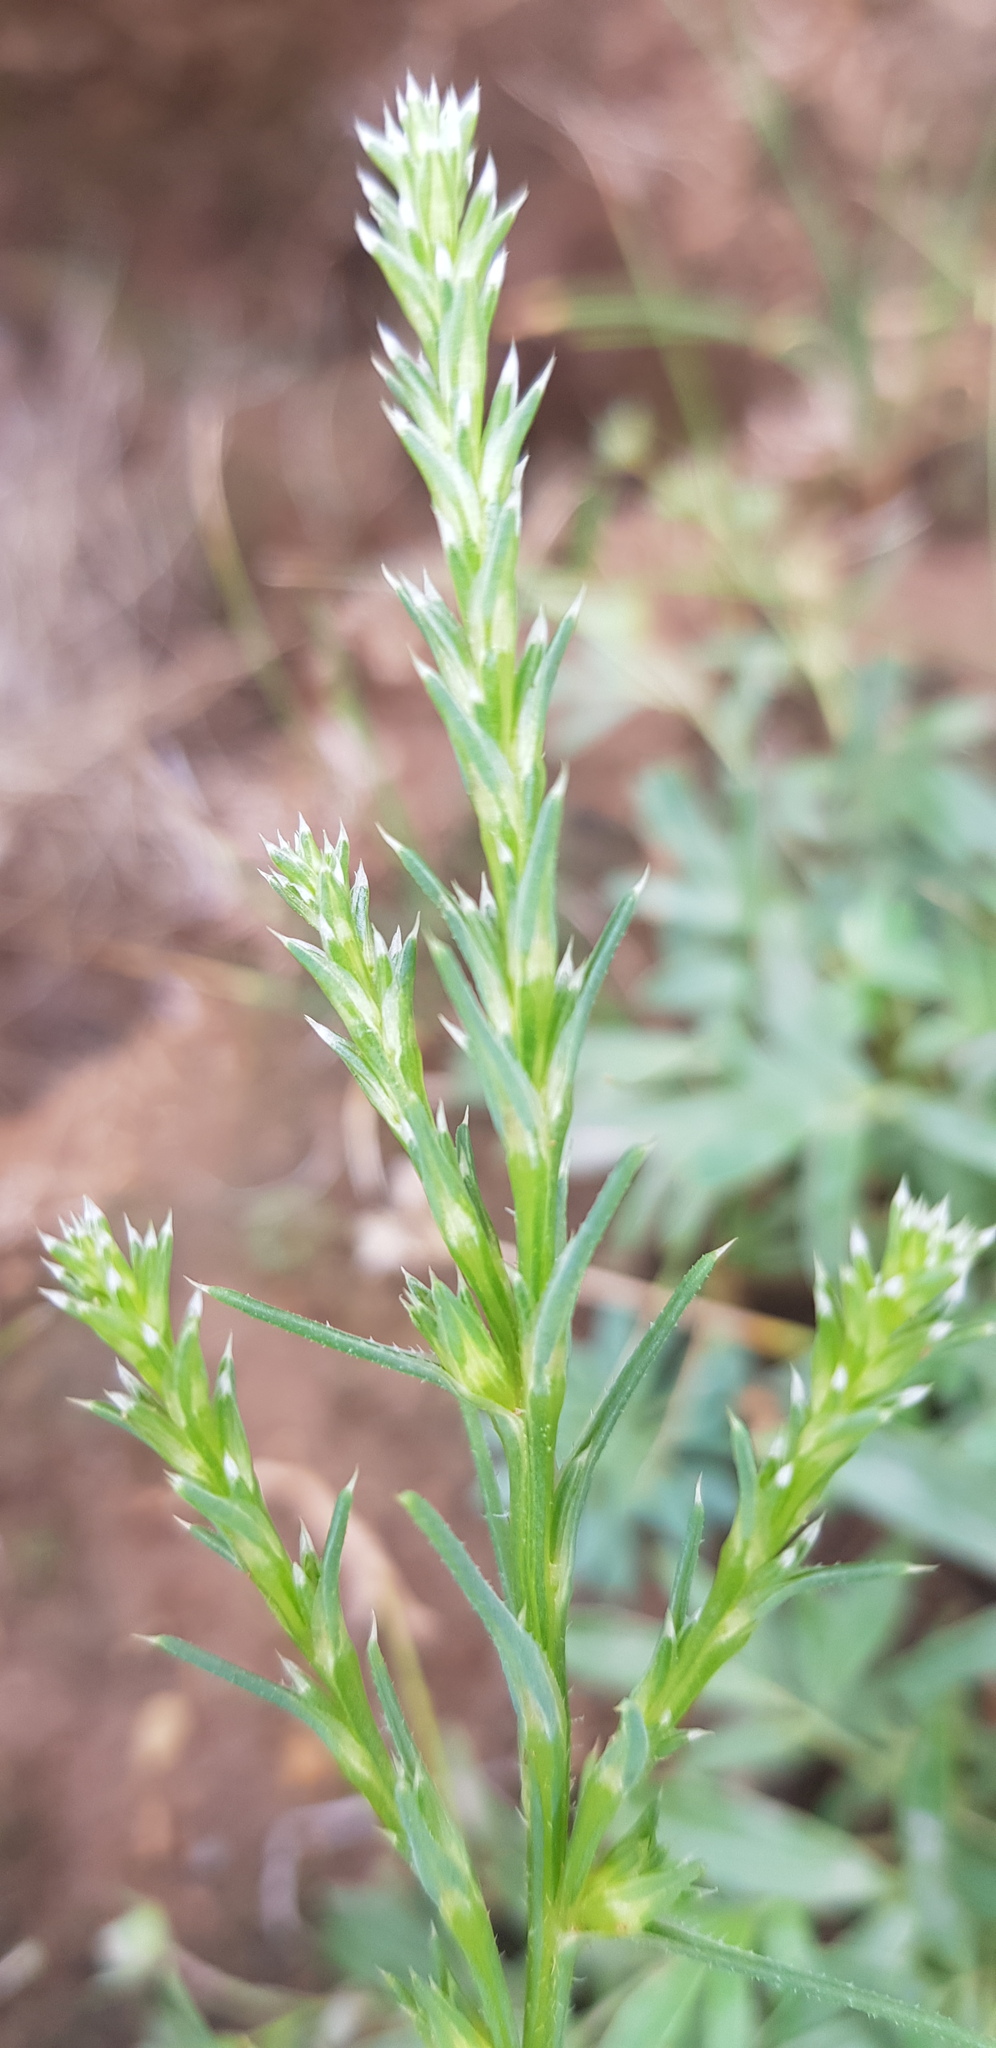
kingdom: Plantae
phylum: Tracheophyta
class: Magnoliopsida
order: Caryophyllales
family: Amaranthaceae
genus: Salsola
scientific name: Salsola collina
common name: Tumbleweed
